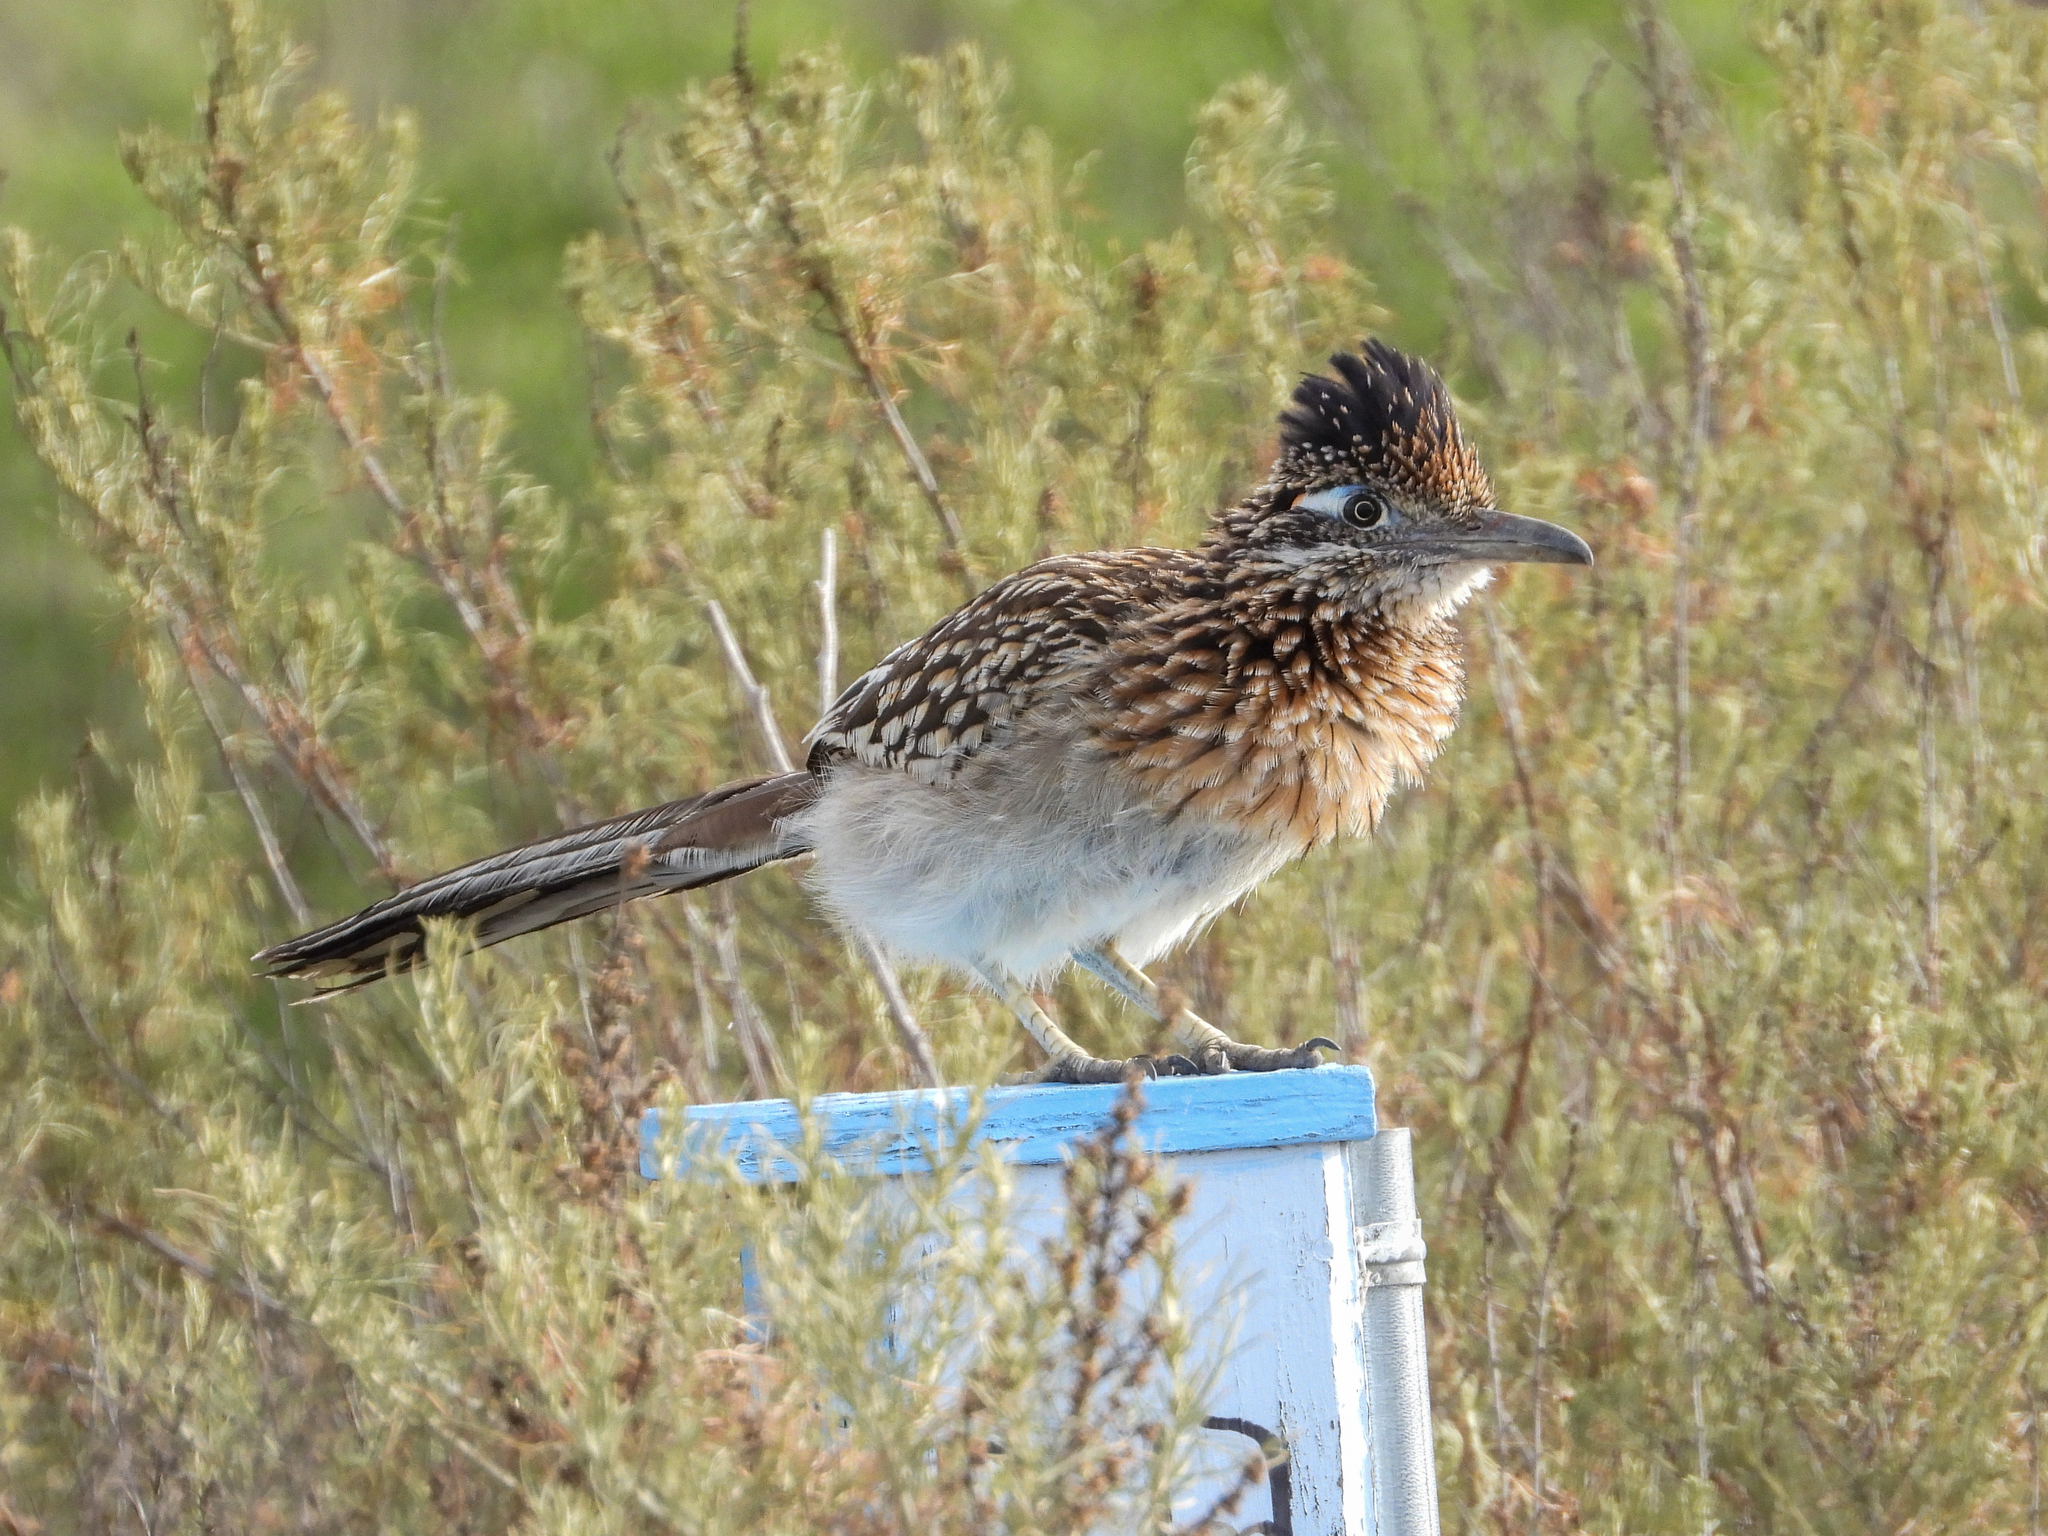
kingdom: Animalia
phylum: Chordata
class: Aves
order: Cuculiformes
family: Cuculidae
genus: Geococcyx
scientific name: Geococcyx californianus
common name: Greater roadrunner
